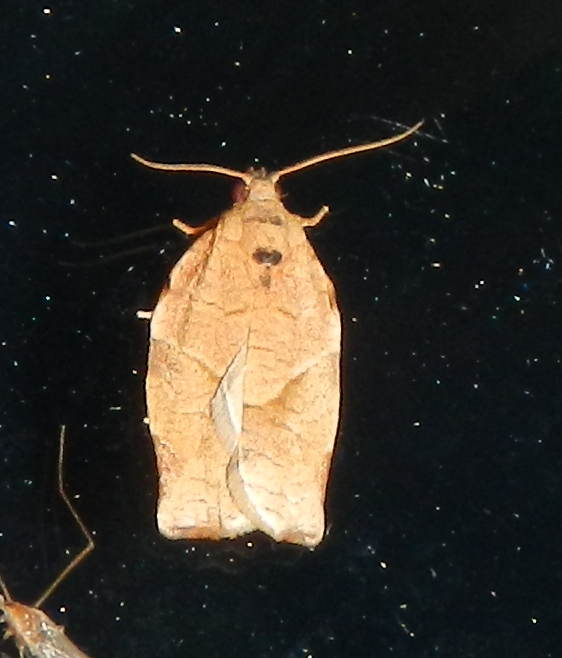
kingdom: Animalia
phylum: Arthropoda
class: Insecta
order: Lepidoptera
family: Tortricidae
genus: Choristoneura
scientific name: Choristoneura rosaceana
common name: Oblique-banded leafroller moth
